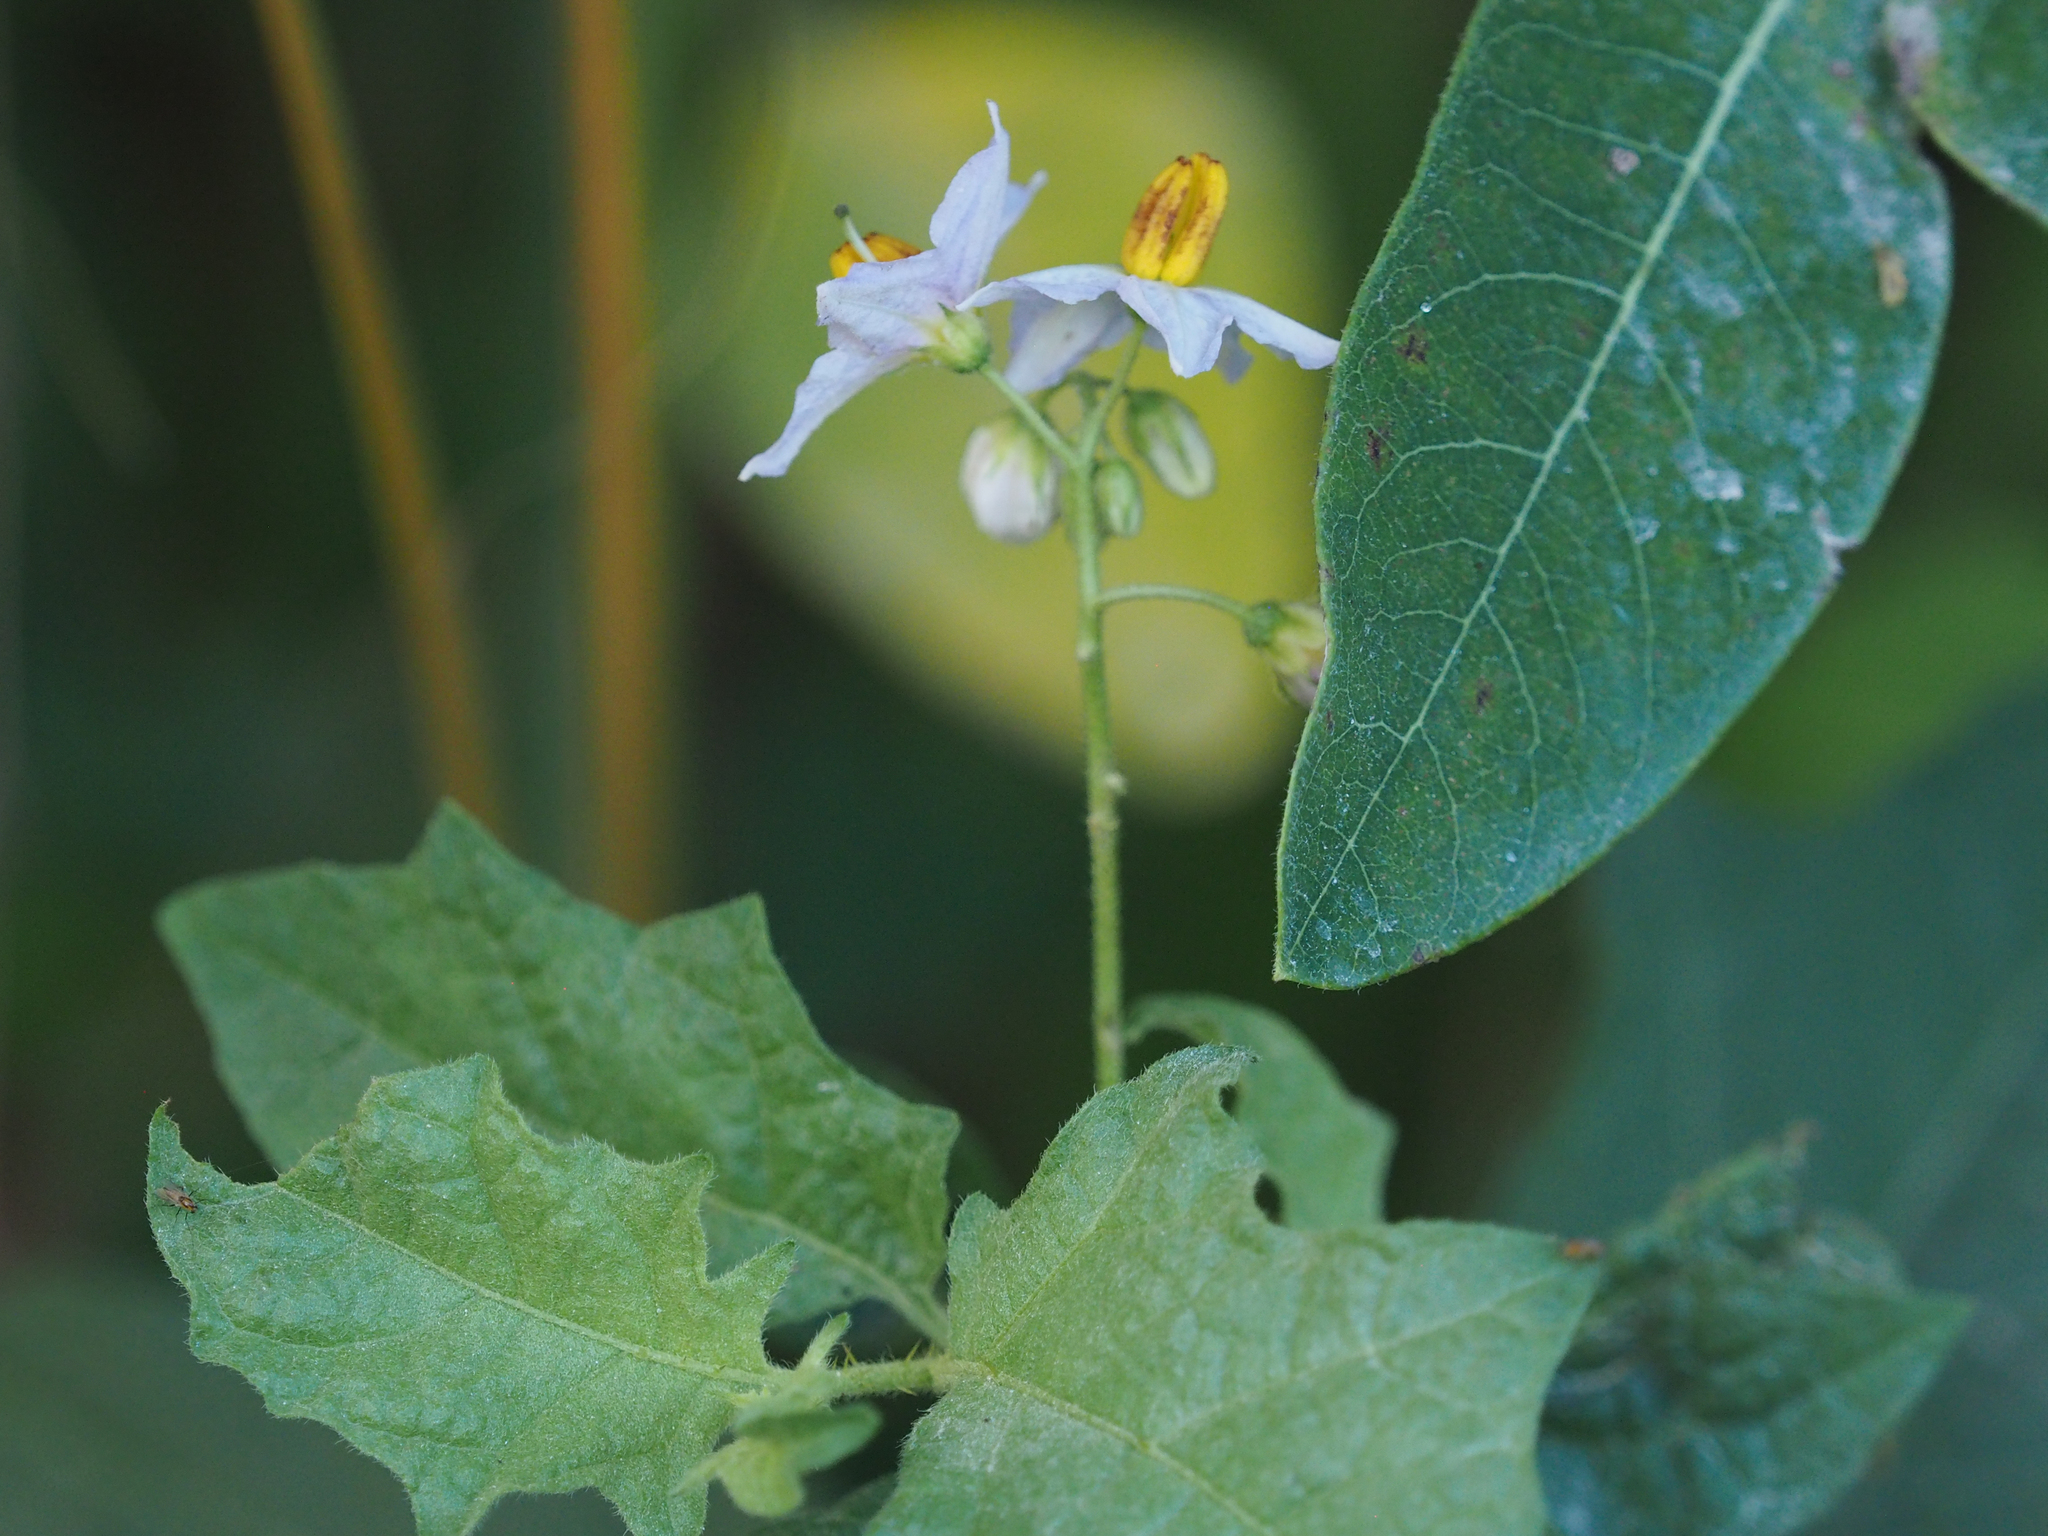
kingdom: Plantae
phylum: Tracheophyta
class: Magnoliopsida
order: Solanales
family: Solanaceae
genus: Solanum
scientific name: Solanum carolinense
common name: Horse-nettle
